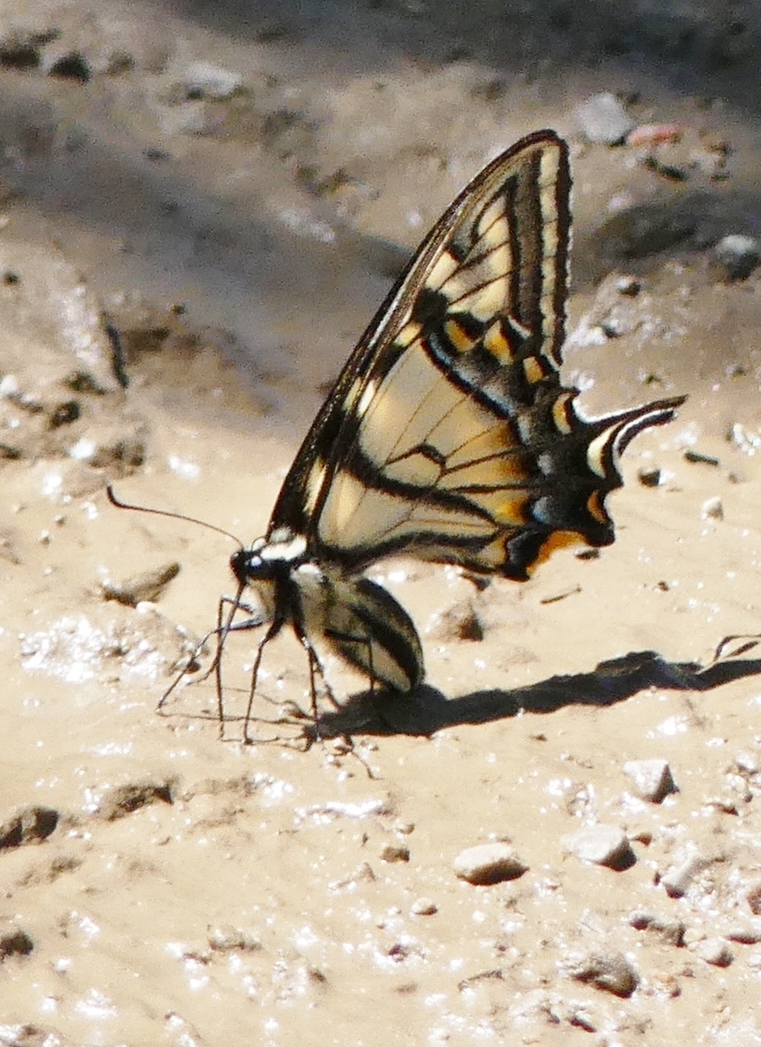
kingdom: Animalia
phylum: Arthropoda
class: Insecta
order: Lepidoptera
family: Papilionidae
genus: Papilio
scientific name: Papilio canadensis
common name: Canadian tiger swallowtail
